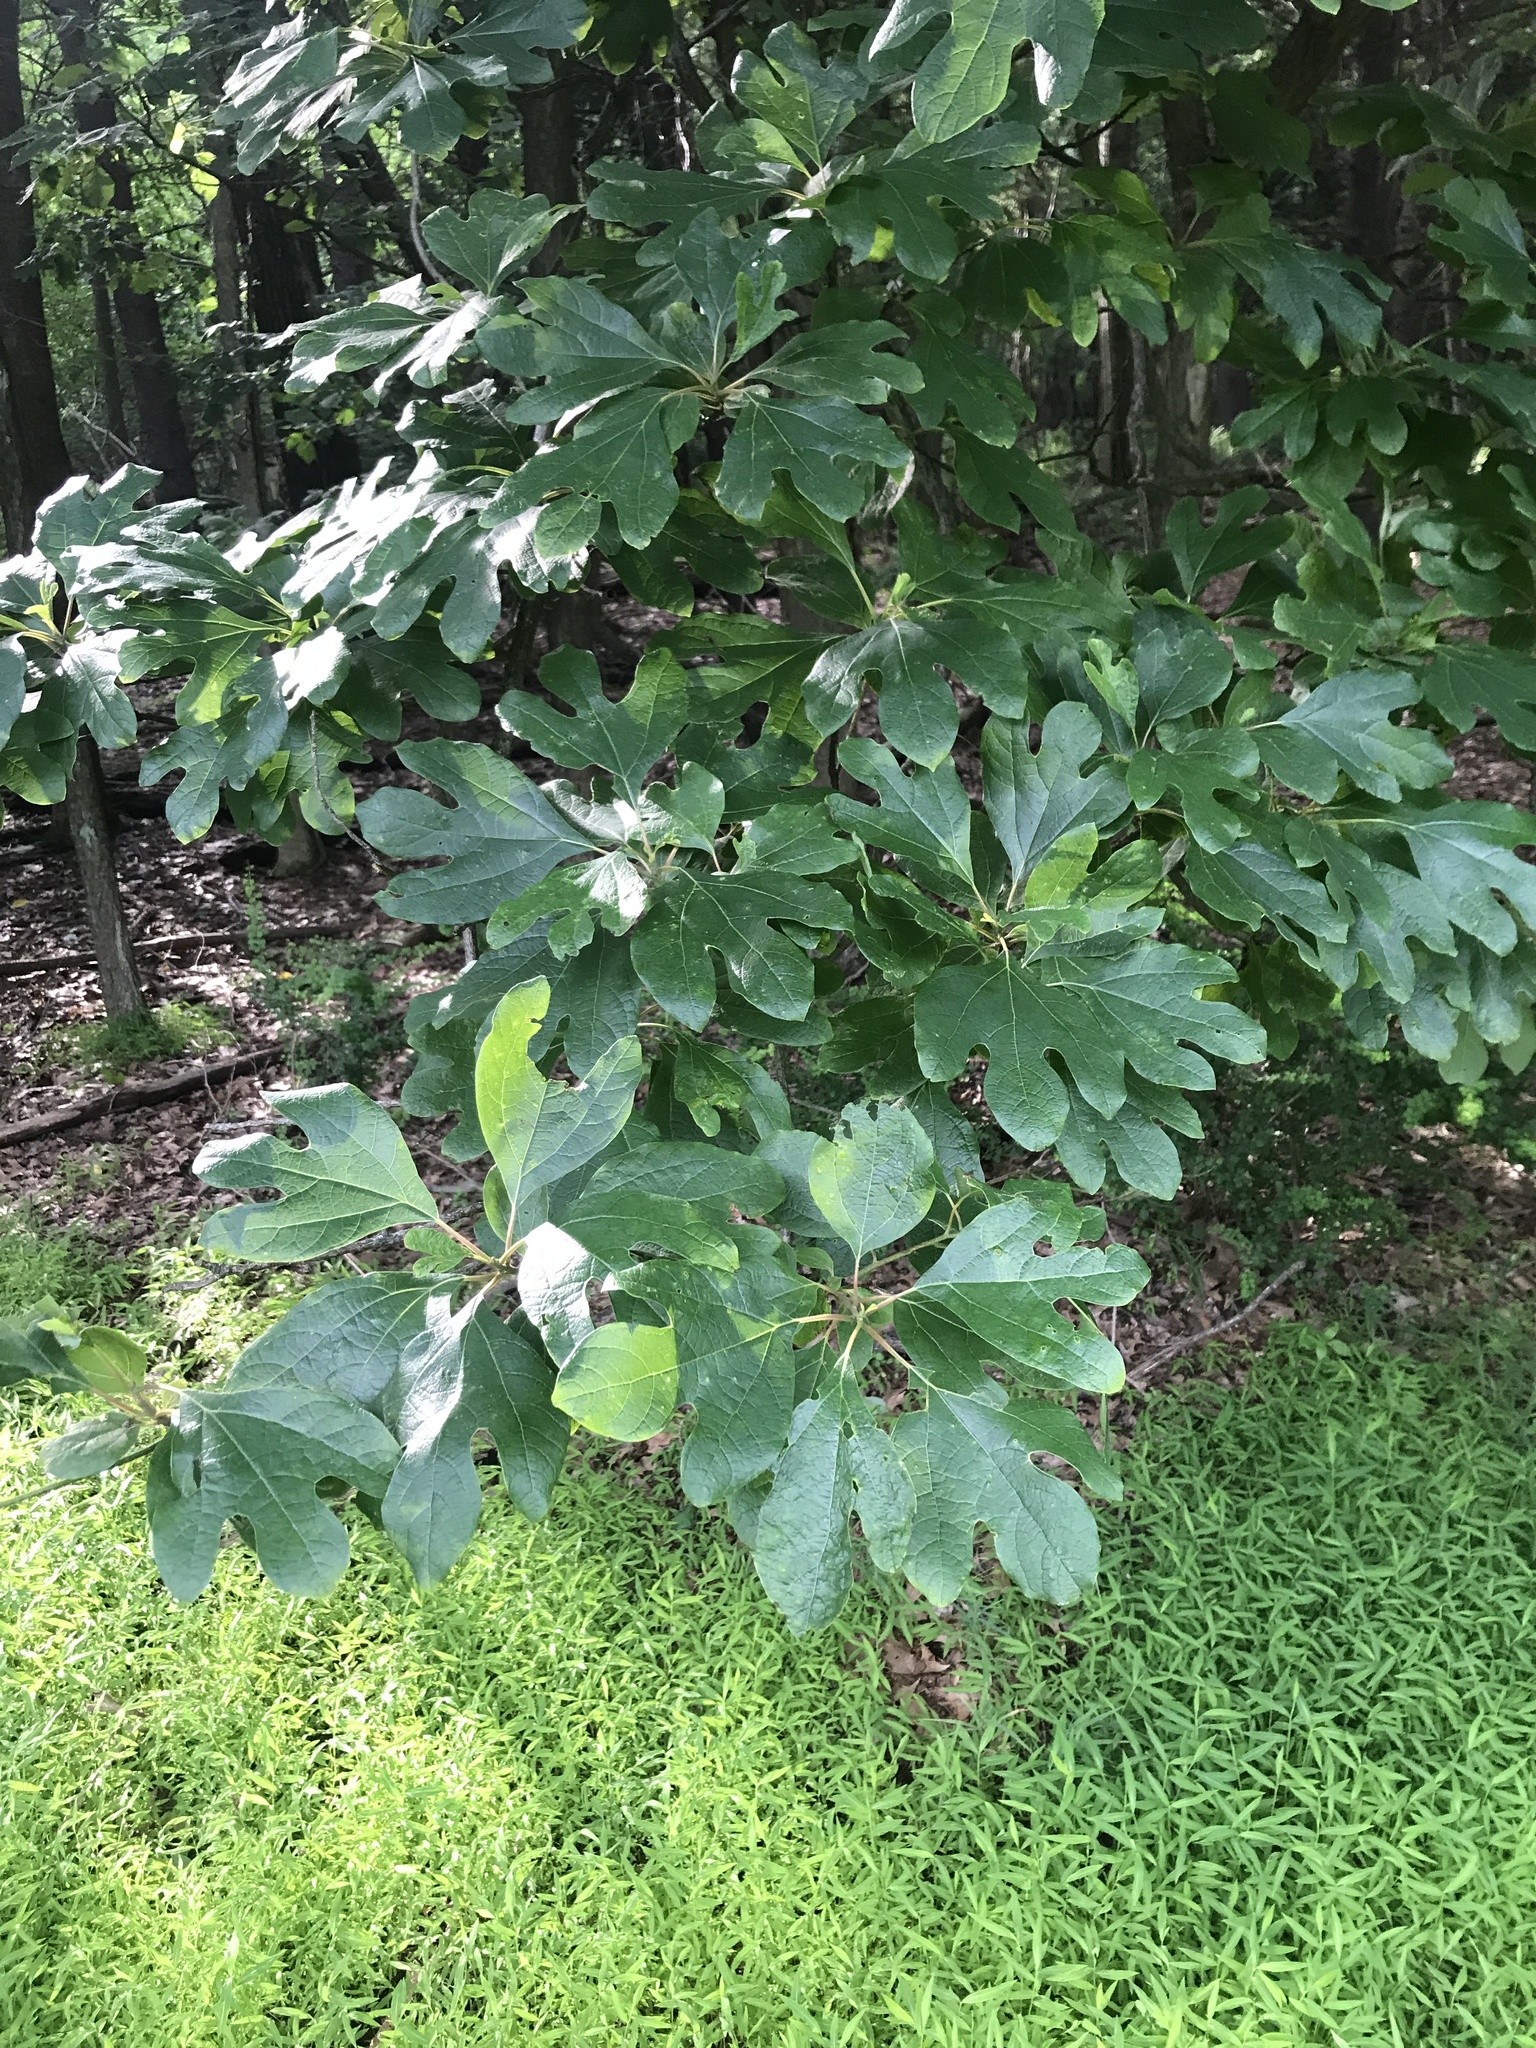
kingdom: Plantae
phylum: Tracheophyta
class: Magnoliopsida
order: Laurales
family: Lauraceae
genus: Sassafras
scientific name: Sassafras albidum
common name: Sassafras
